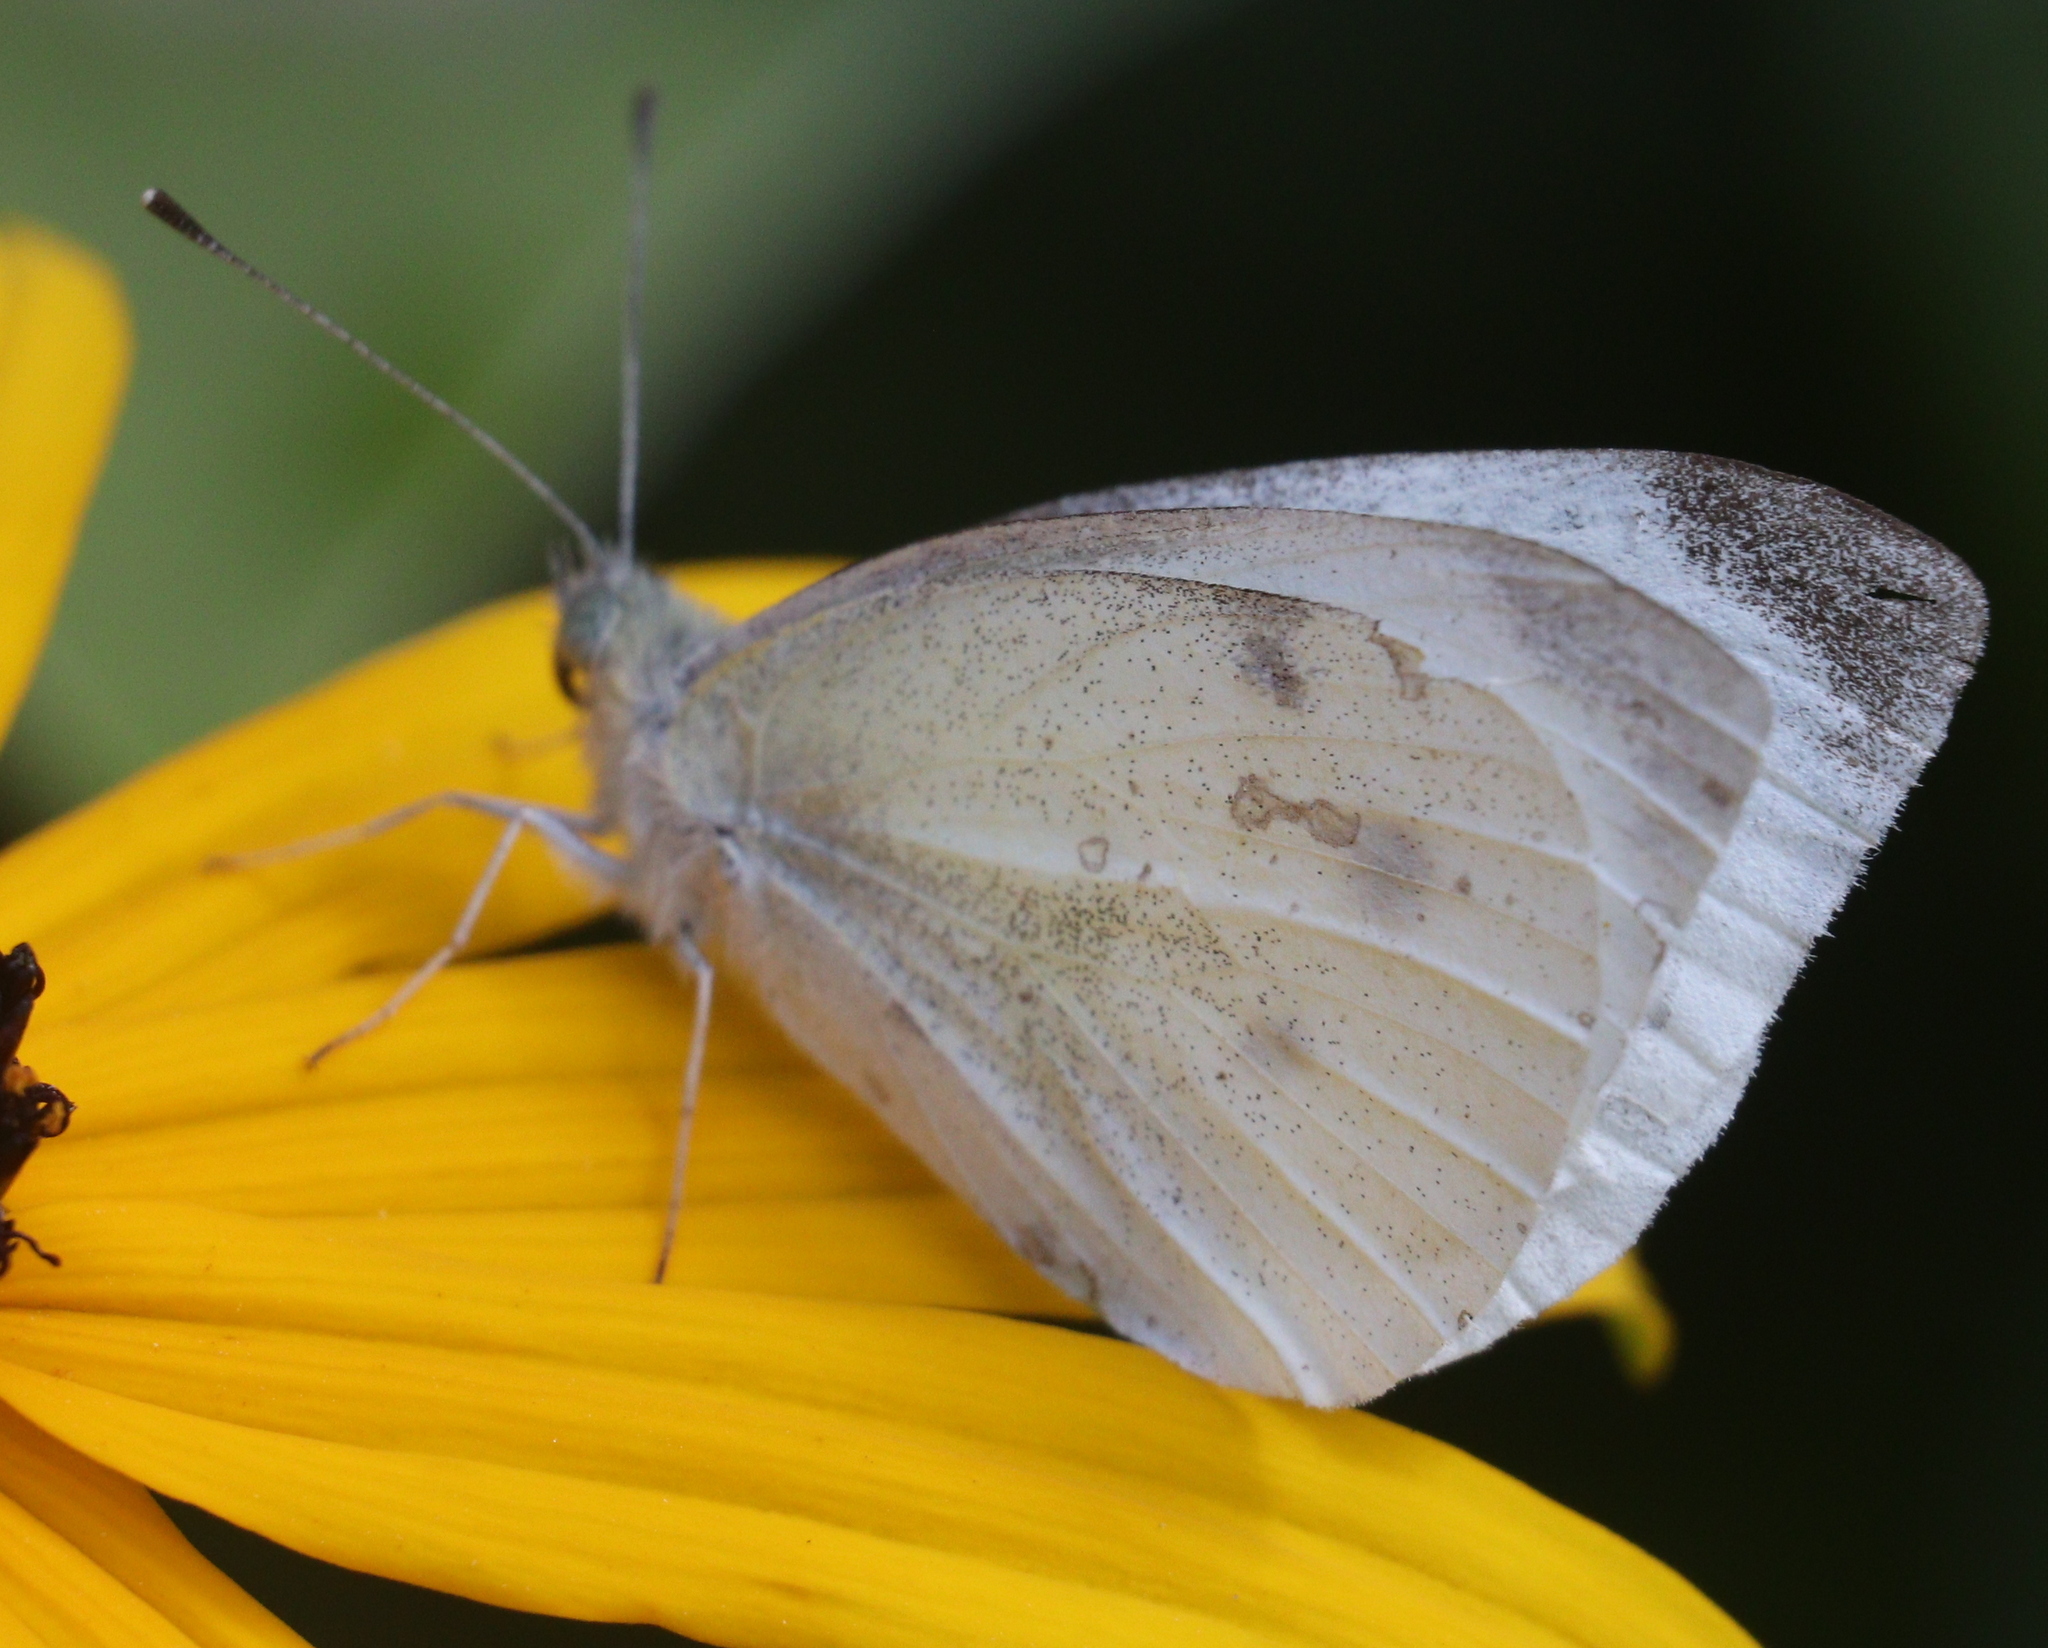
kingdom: Animalia
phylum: Arthropoda
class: Insecta
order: Lepidoptera
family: Pieridae
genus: Pieris
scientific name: Pieris rapae
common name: Small white
